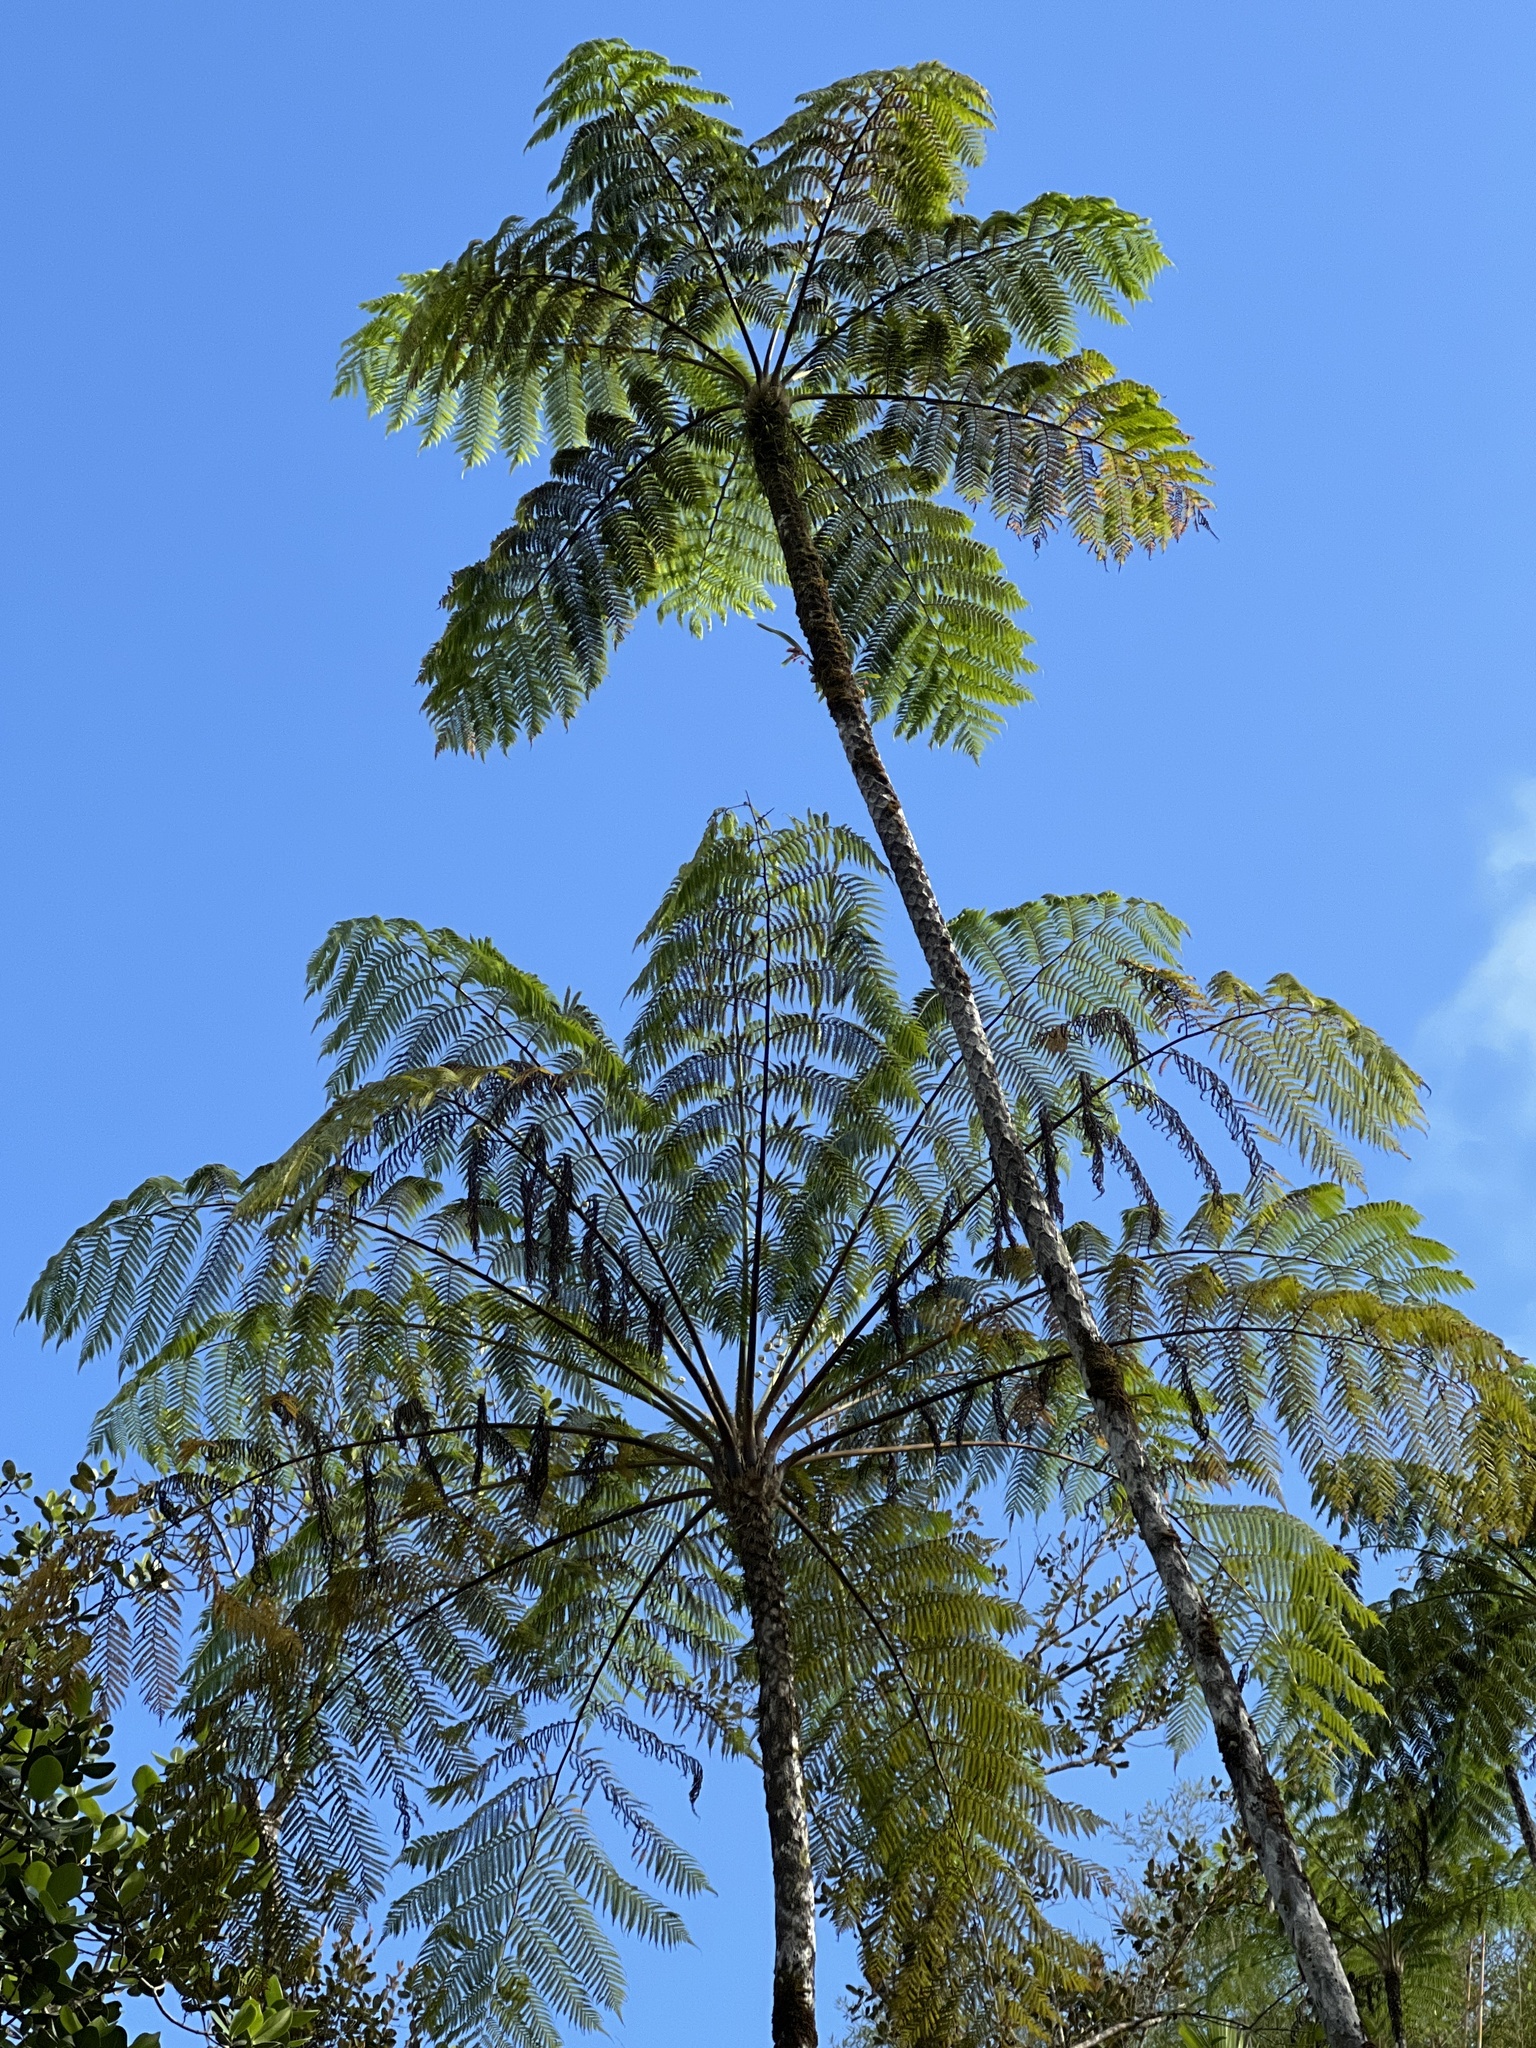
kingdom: Plantae
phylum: Tracheophyta
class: Polypodiopsida
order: Cyatheales
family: Cyatheaceae
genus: Cyathea
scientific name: Cyathea arborea
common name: West indian treefern
